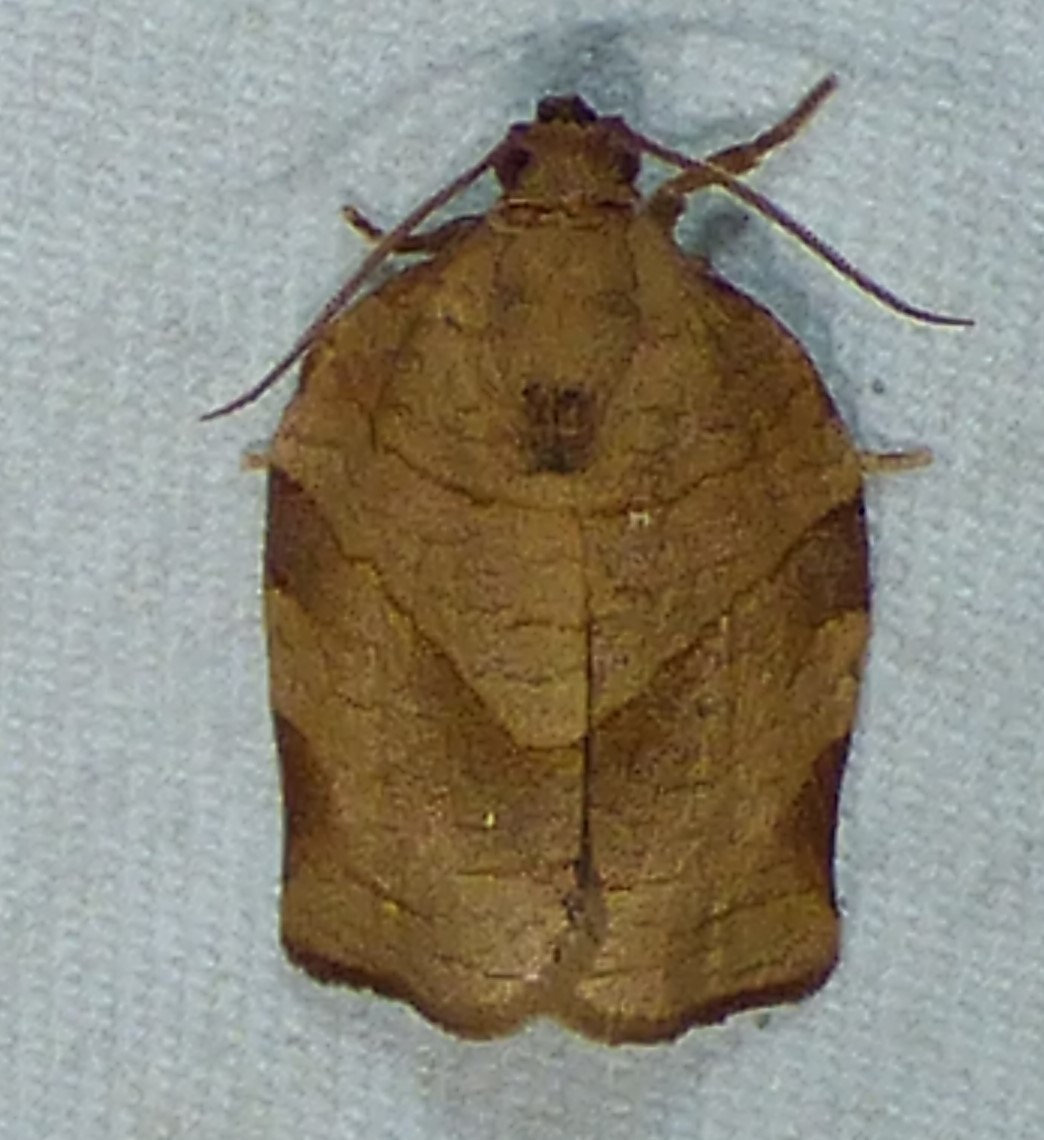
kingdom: Animalia
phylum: Arthropoda
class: Insecta
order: Lepidoptera
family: Tortricidae
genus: Choristoneura
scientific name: Choristoneura rosaceana
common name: Oblique-banded leafroller moth
